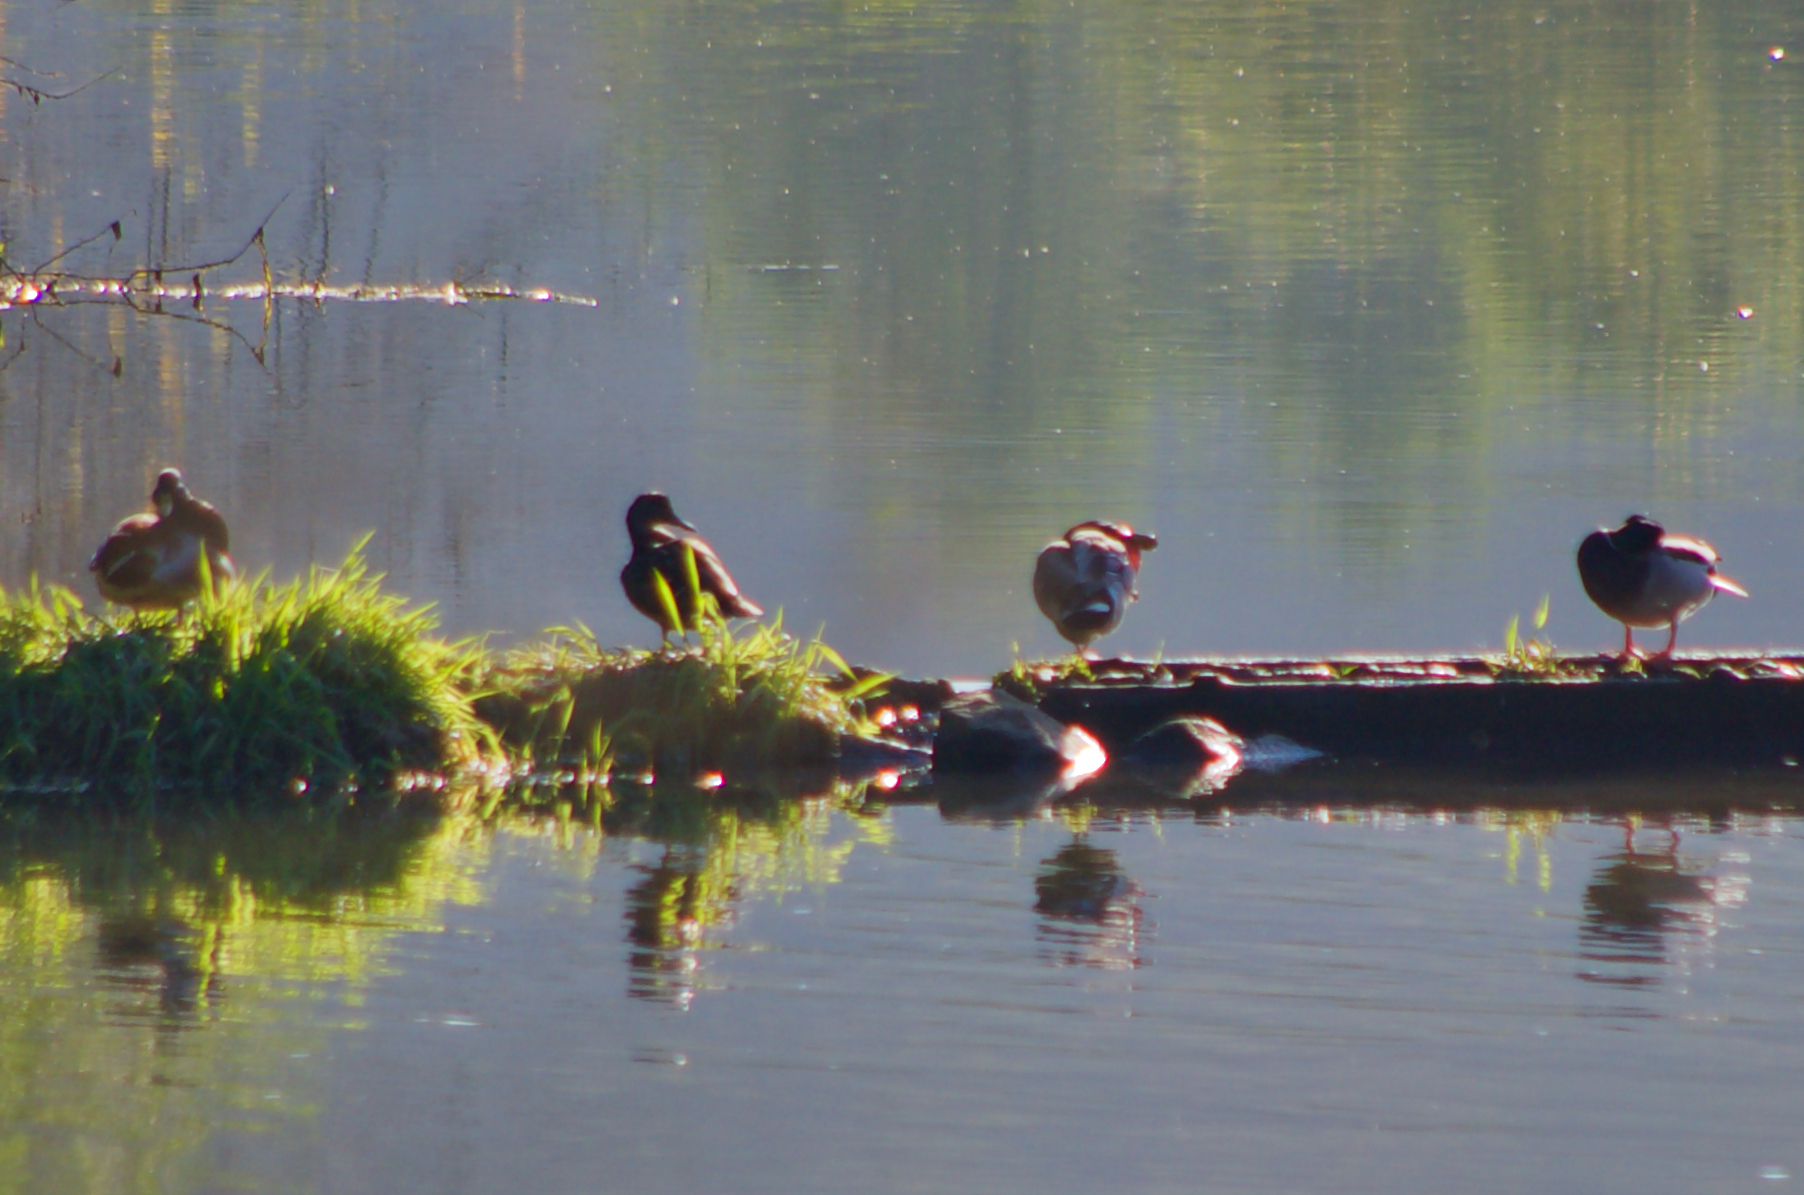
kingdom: Animalia
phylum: Chordata
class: Aves
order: Anseriformes
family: Anatidae
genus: Anas
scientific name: Anas platyrhynchos
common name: Mallard
